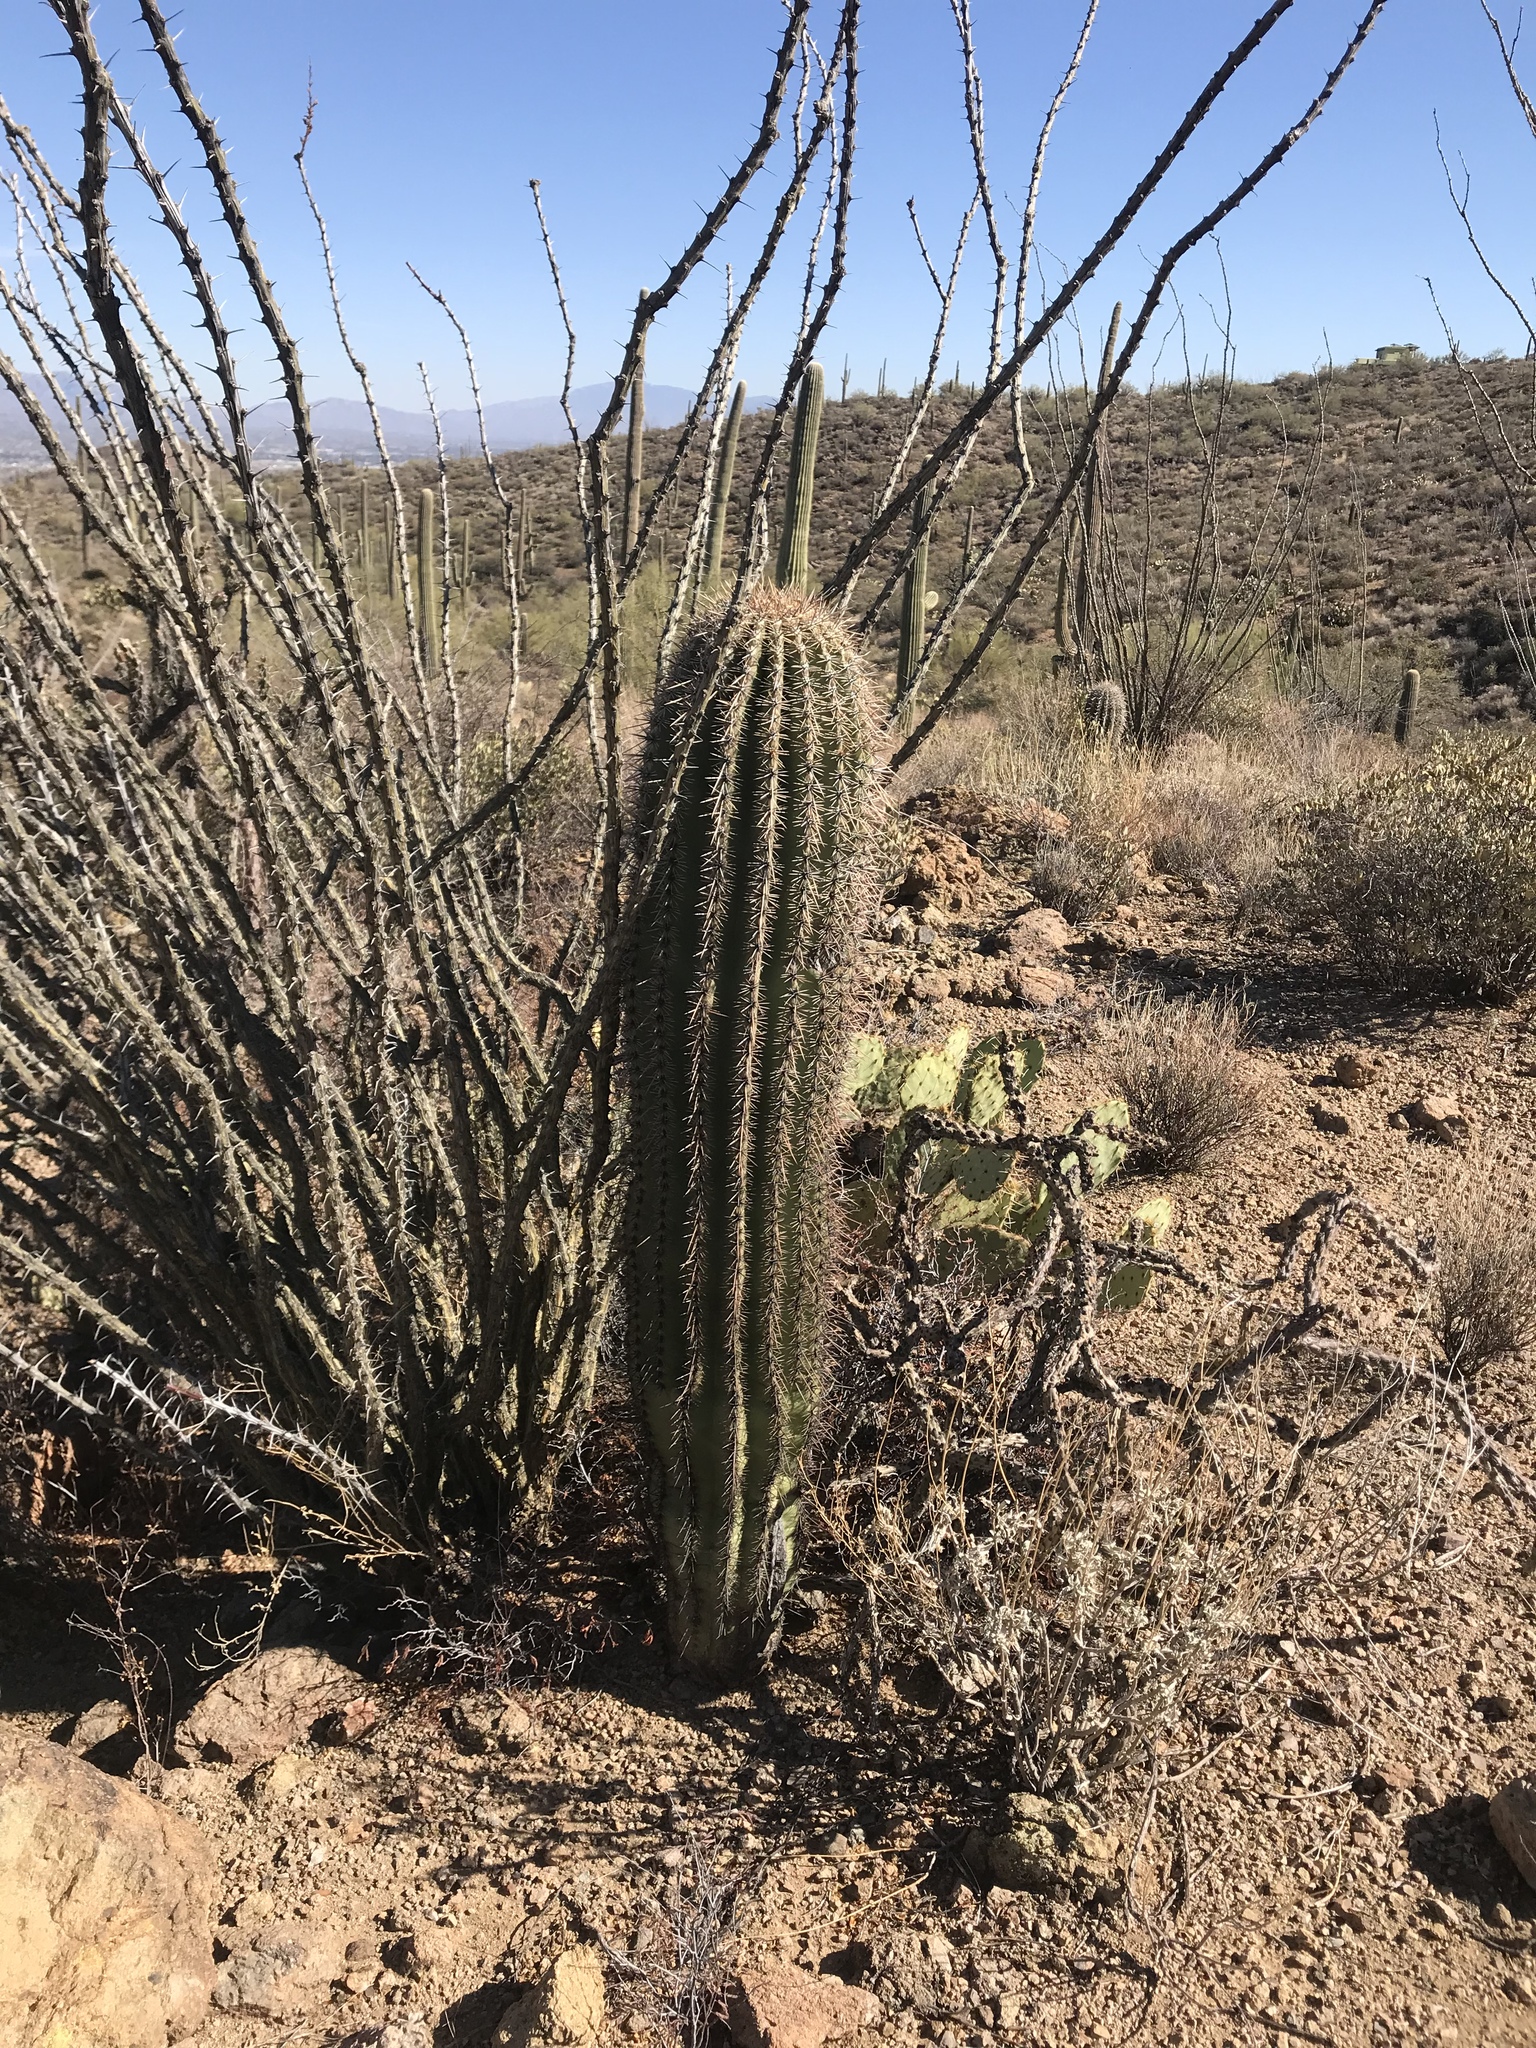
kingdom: Plantae
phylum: Tracheophyta
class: Magnoliopsida
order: Caryophyllales
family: Cactaceae
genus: Carnegiea
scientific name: Carnegiea gigantea
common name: Saguaro
